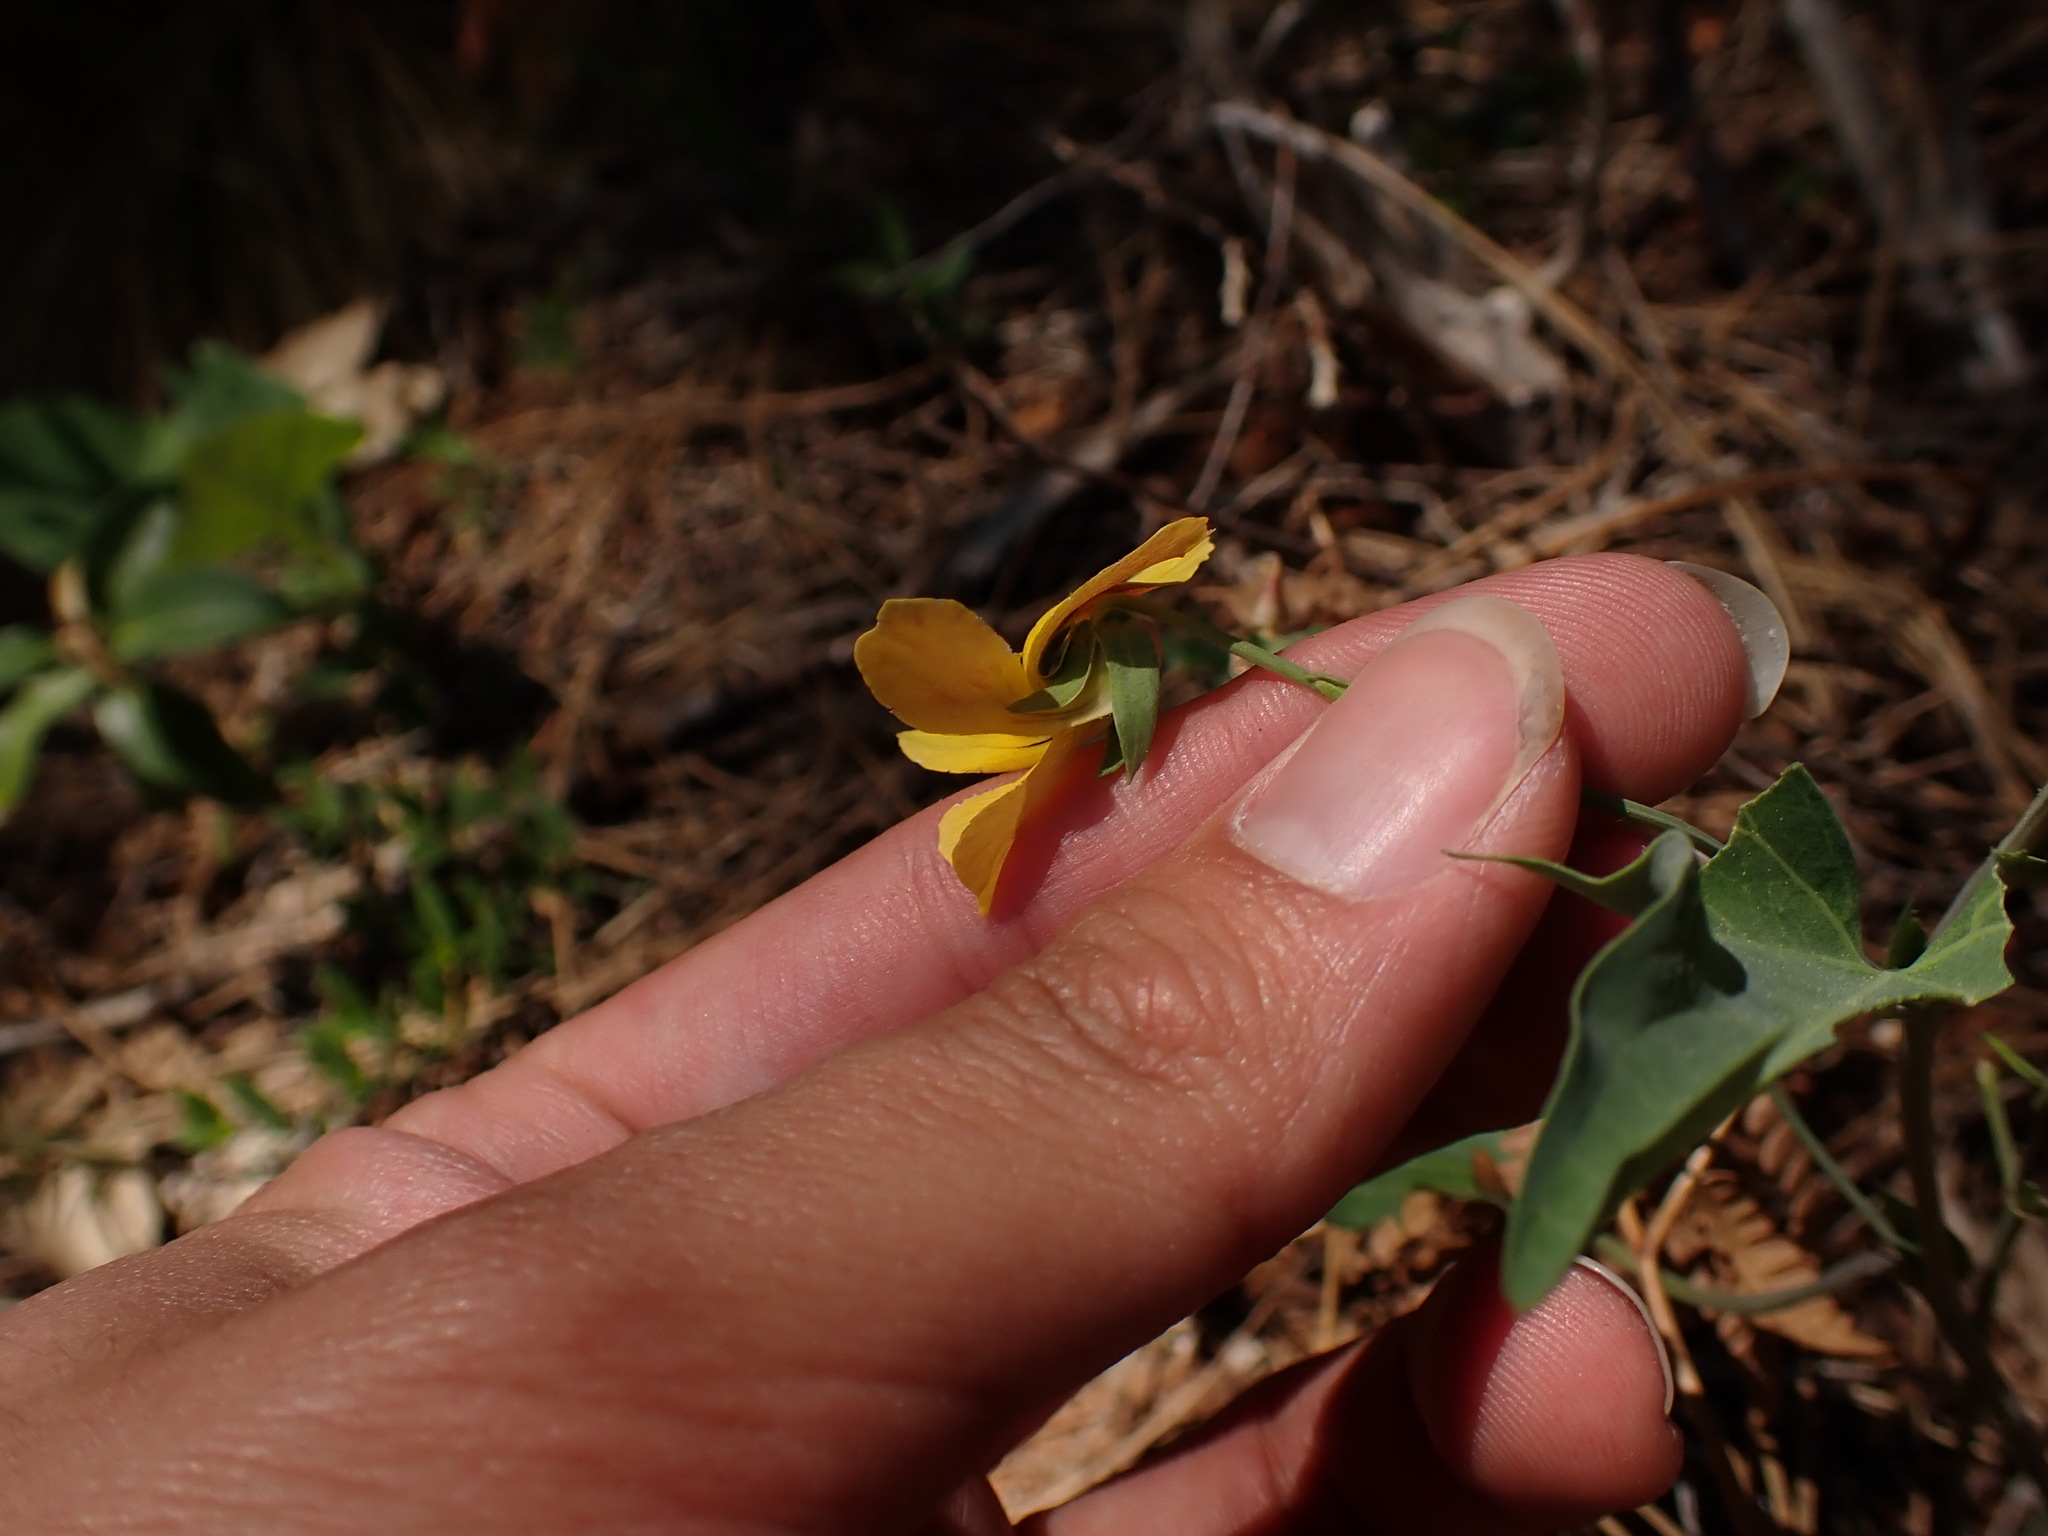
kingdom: Plantae
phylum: Tracheophyta
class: Magnoliopsida
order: Malpighiales
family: Violaceae
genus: Viola
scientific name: Viola lobata
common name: Pine violet
